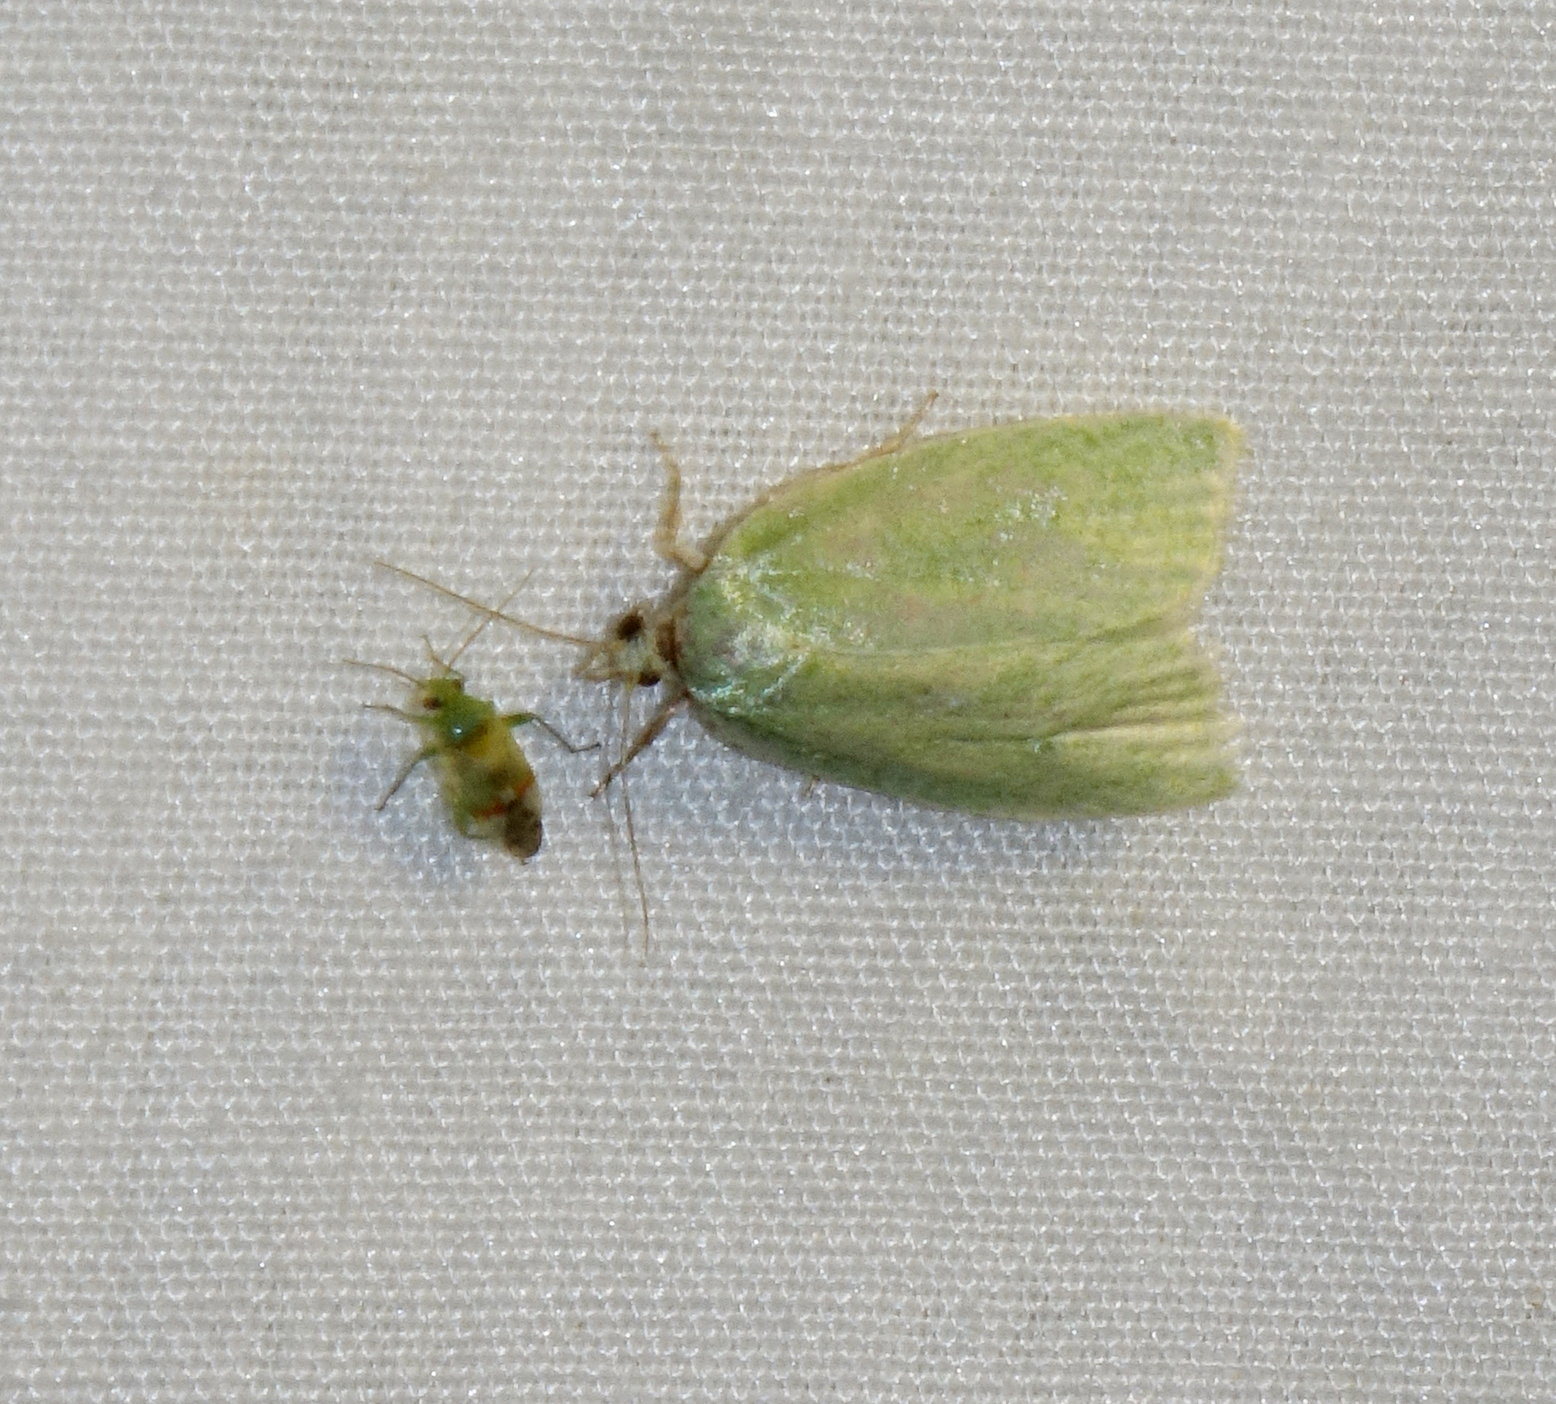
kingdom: Animalia
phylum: Arthropoda
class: Insecta
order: Lepidoptera
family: Tortricidae
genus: Tortrix
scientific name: Tortrix viridana
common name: Green oak tortrix
